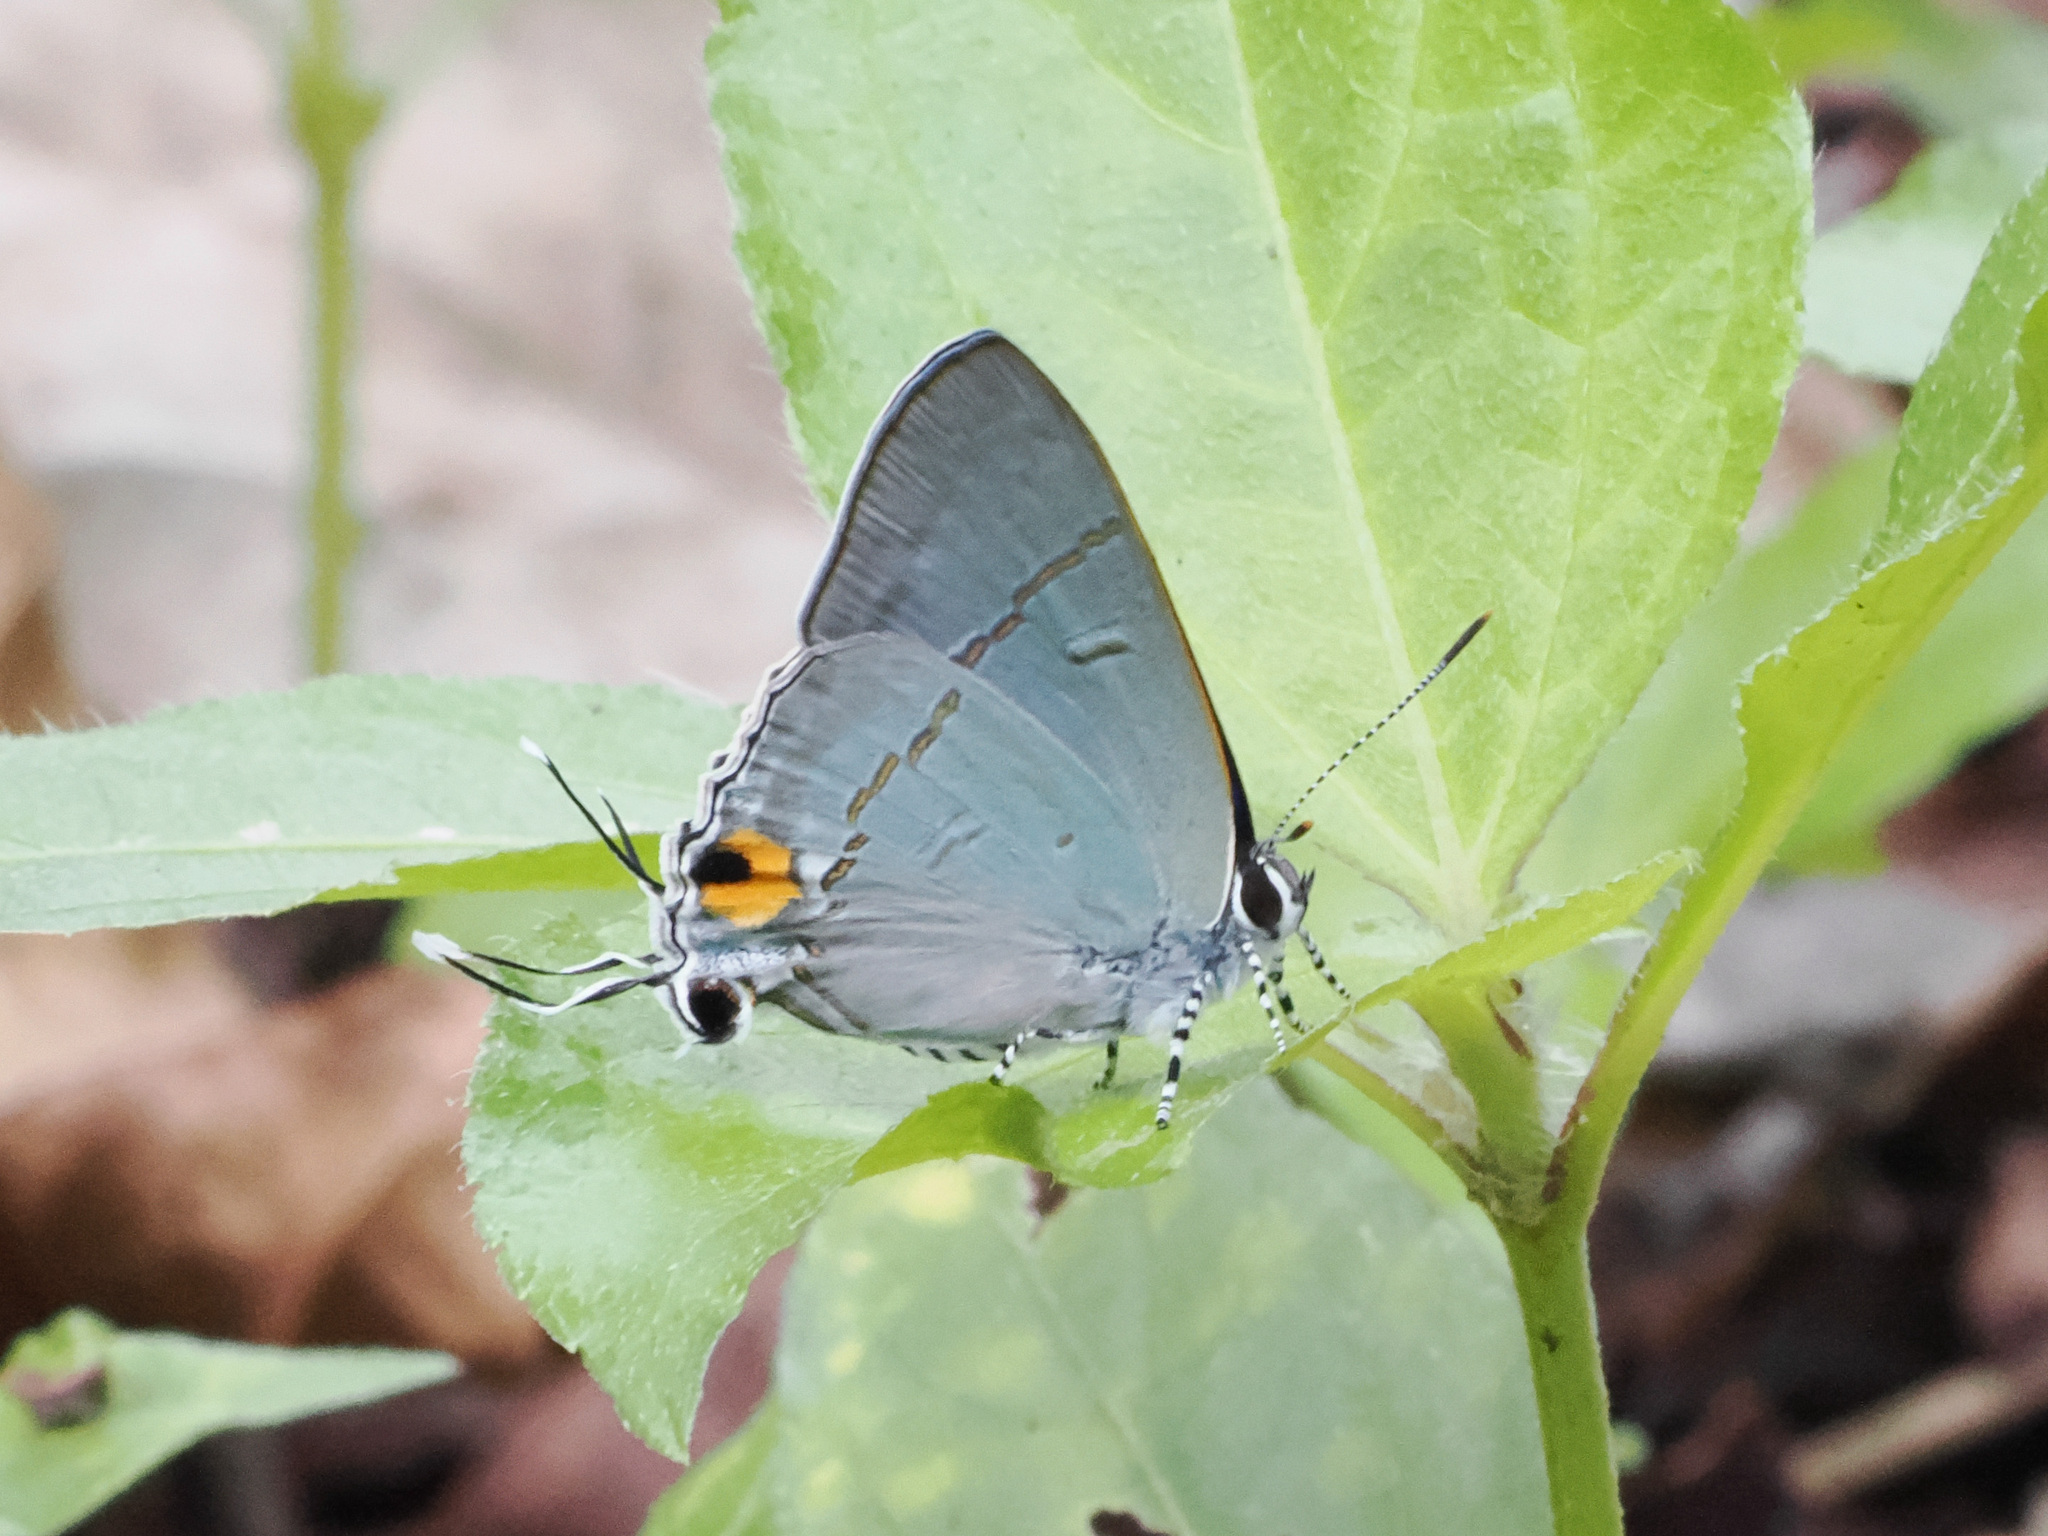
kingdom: Animalia
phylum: Arthropoda
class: Insecta
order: Lepidoptera
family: Lycaenidae
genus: Hypolycaena
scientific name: Hypolycaena erylus
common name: Common tit
